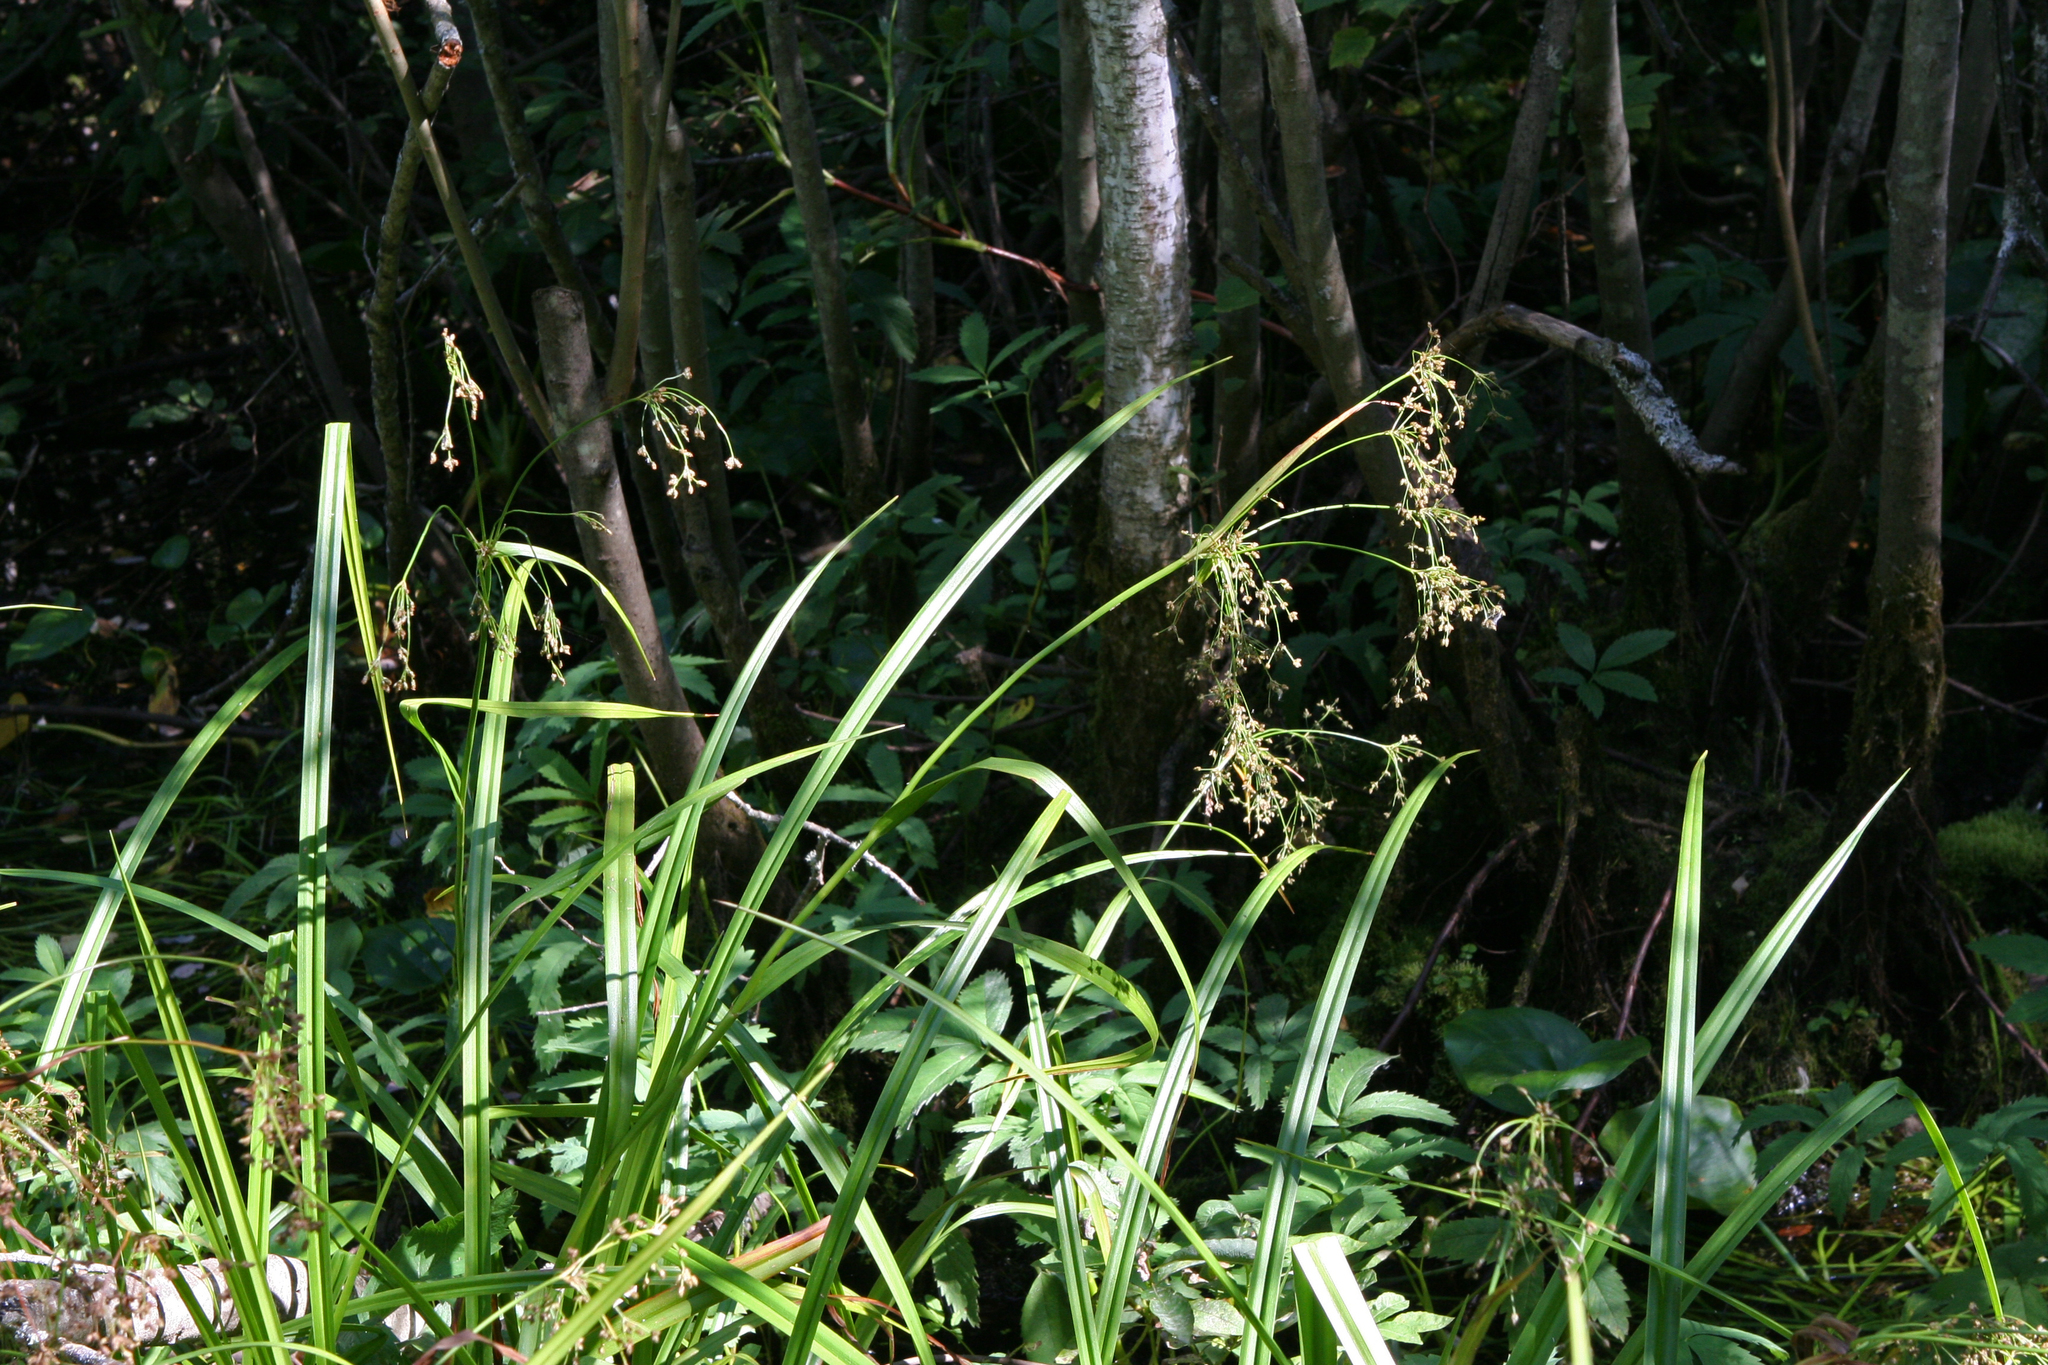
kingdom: Plantae
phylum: Tracheophyta
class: Liliopsida
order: Poales
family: Cyperaceae
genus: Scirpus
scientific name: Scirpus sylvaticus
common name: Wood club-rush
